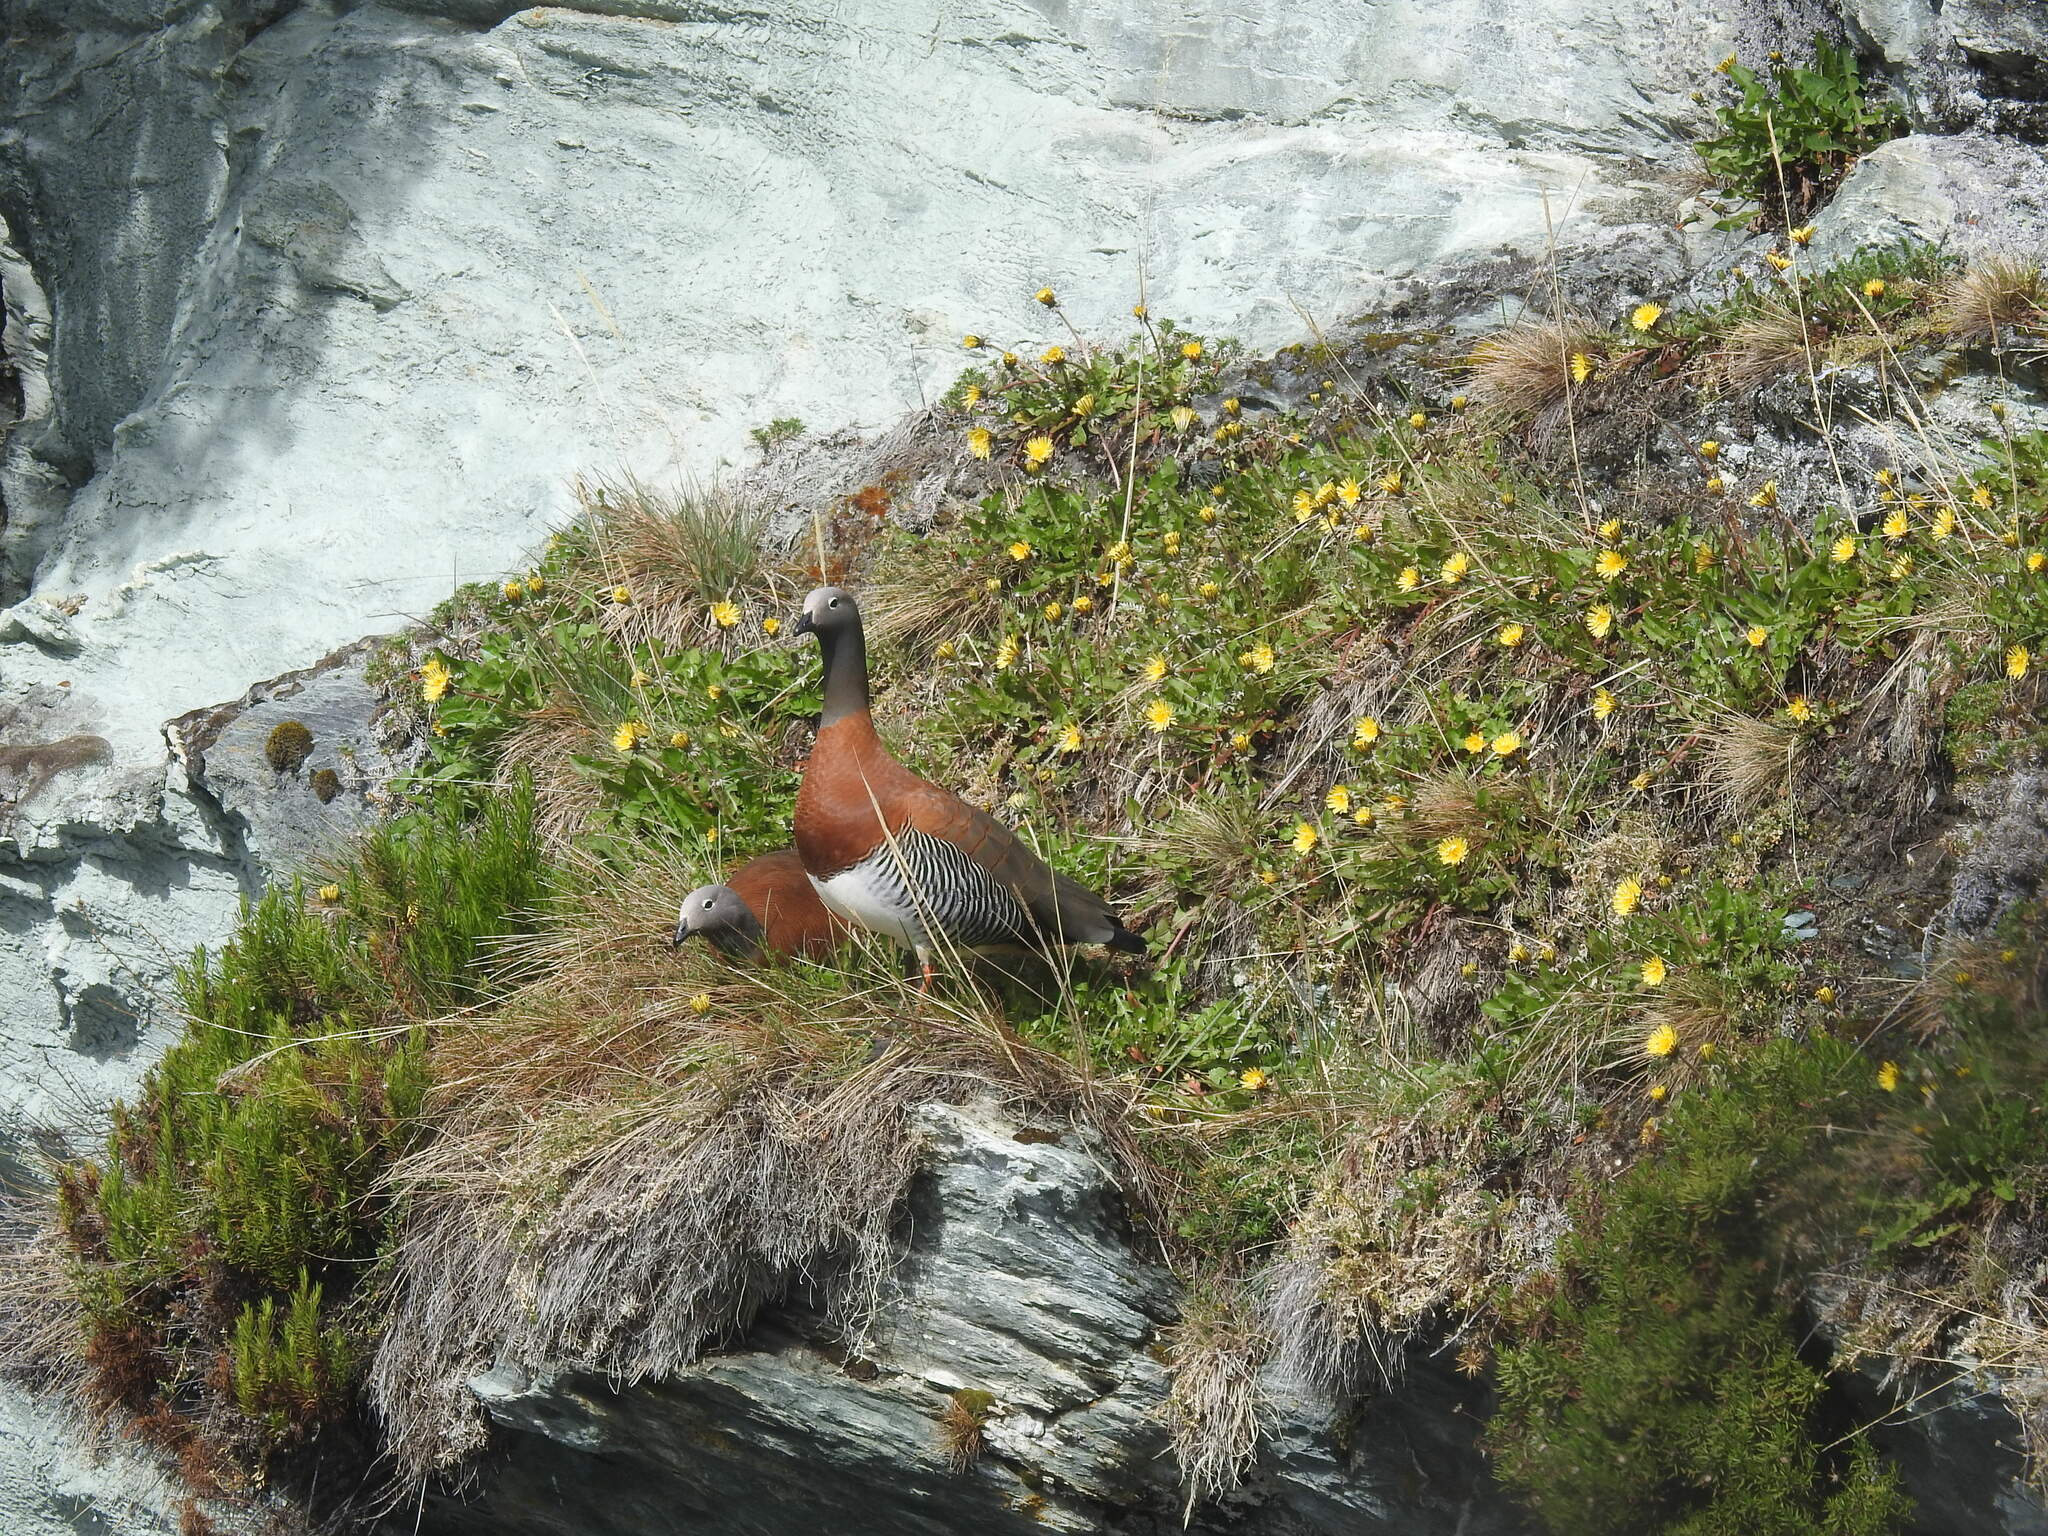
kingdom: Animalia
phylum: Chordata
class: Aves
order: Anseriformes
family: Anatidae
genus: Chloephaga
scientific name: Chloephaga poliocephala
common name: Ashy-headed goose
